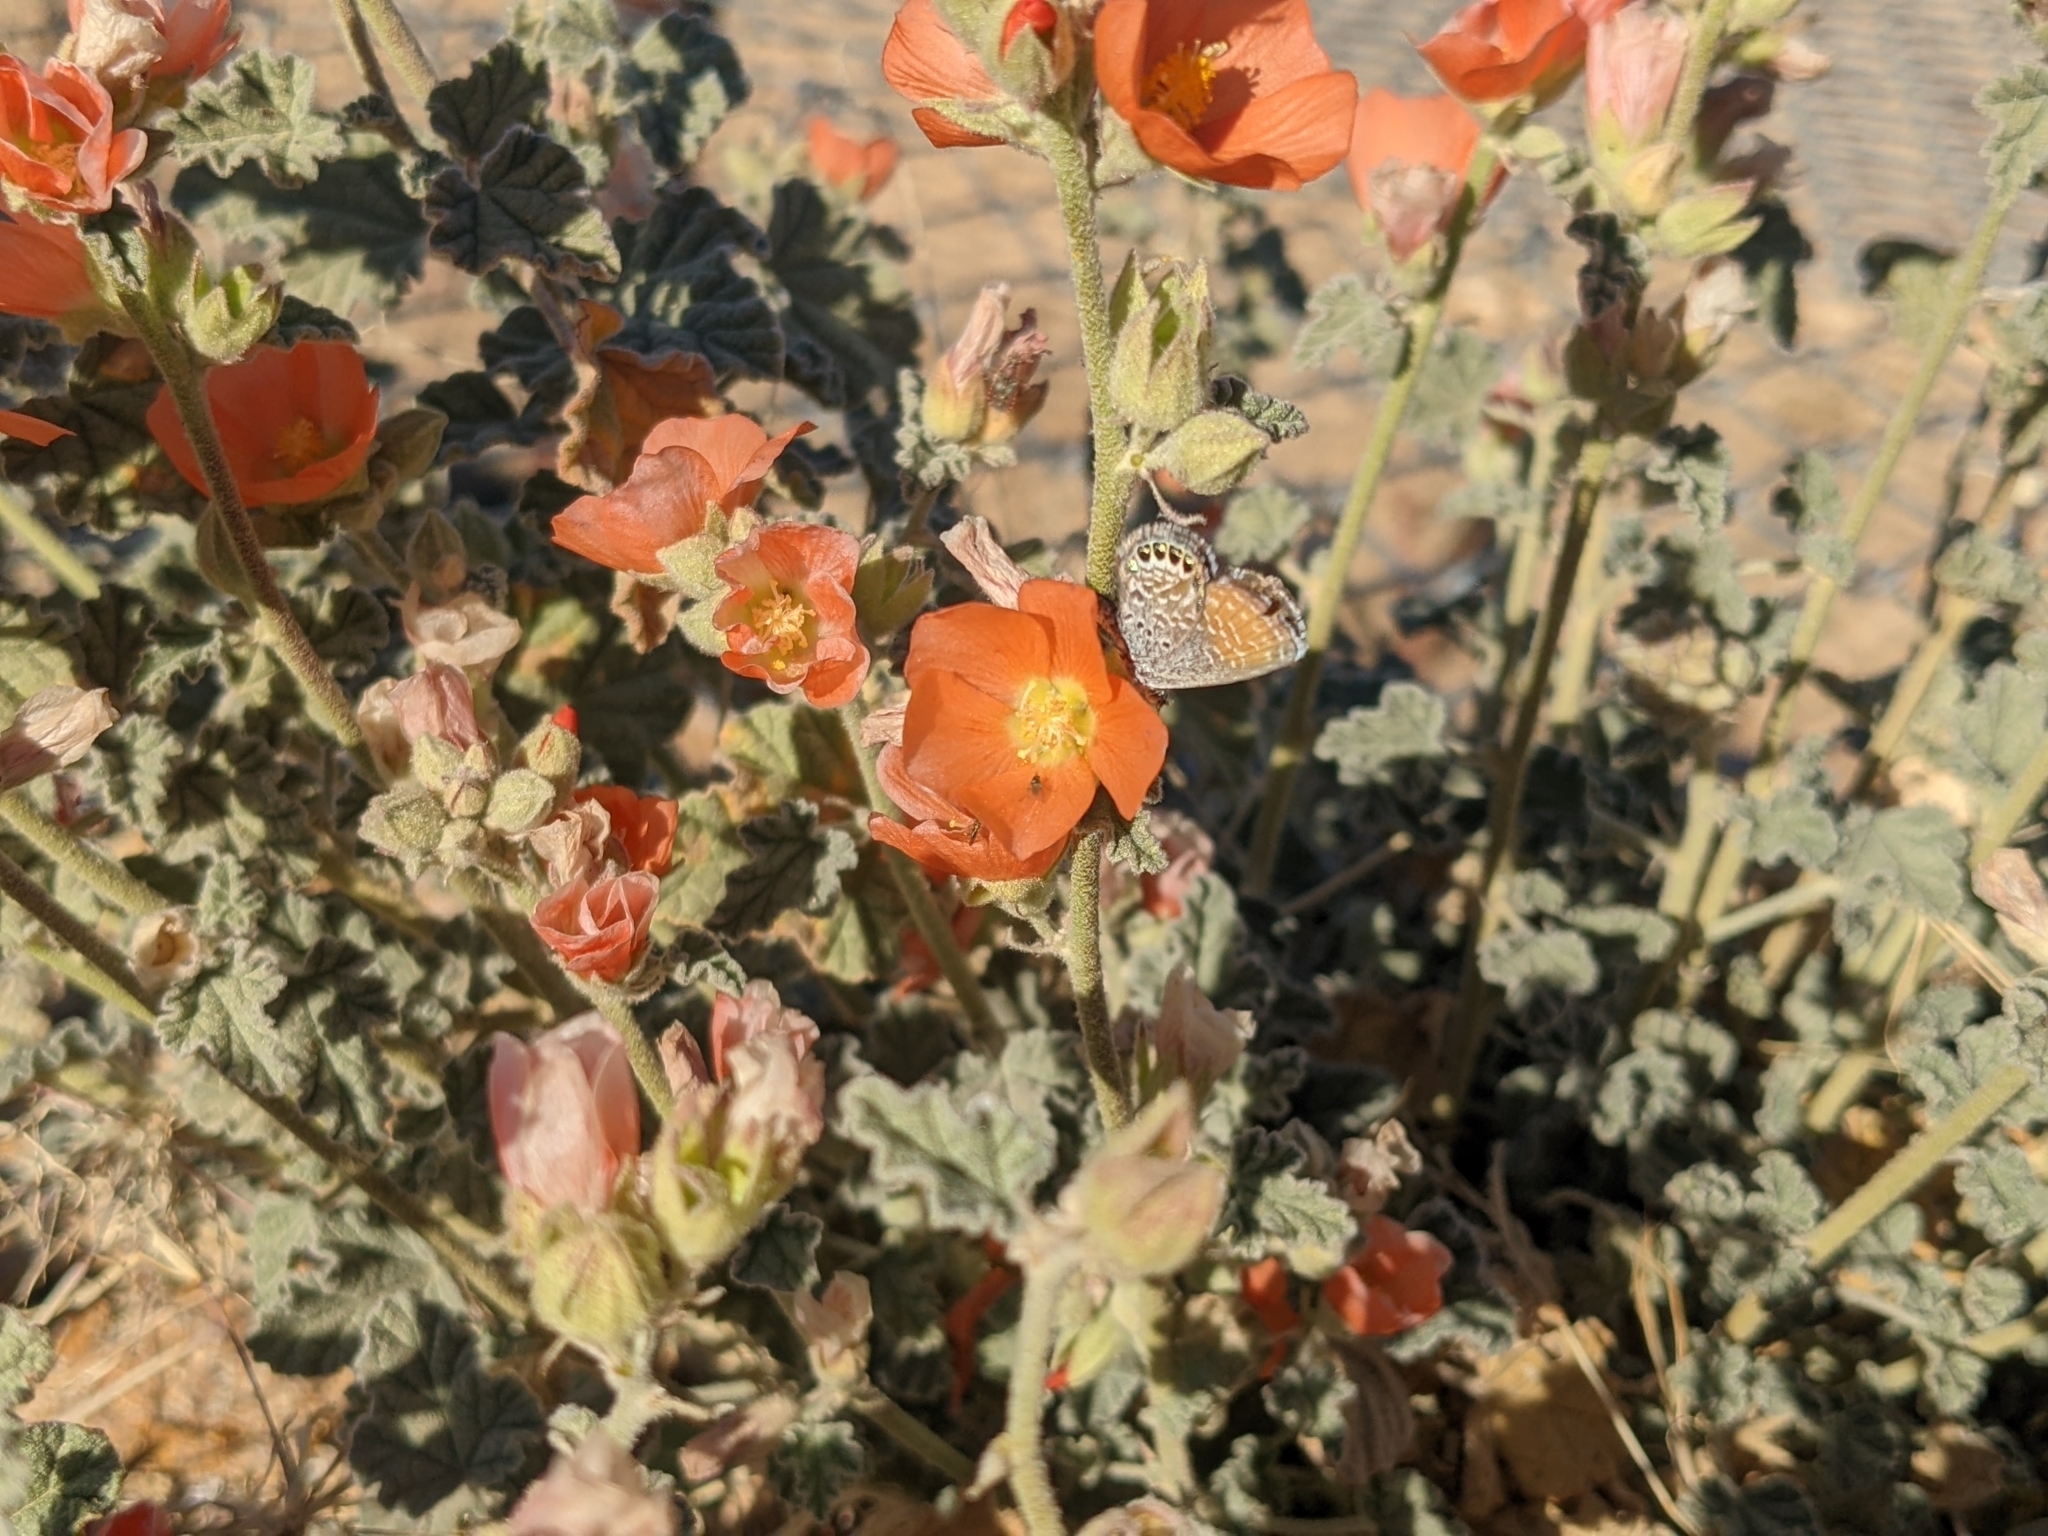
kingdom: Animalia
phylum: Arthropoda
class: Insecta
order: Lepidoptera
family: Lycaenidae
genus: Brephidium
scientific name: Brephidium exilis
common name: Pygmy blue
